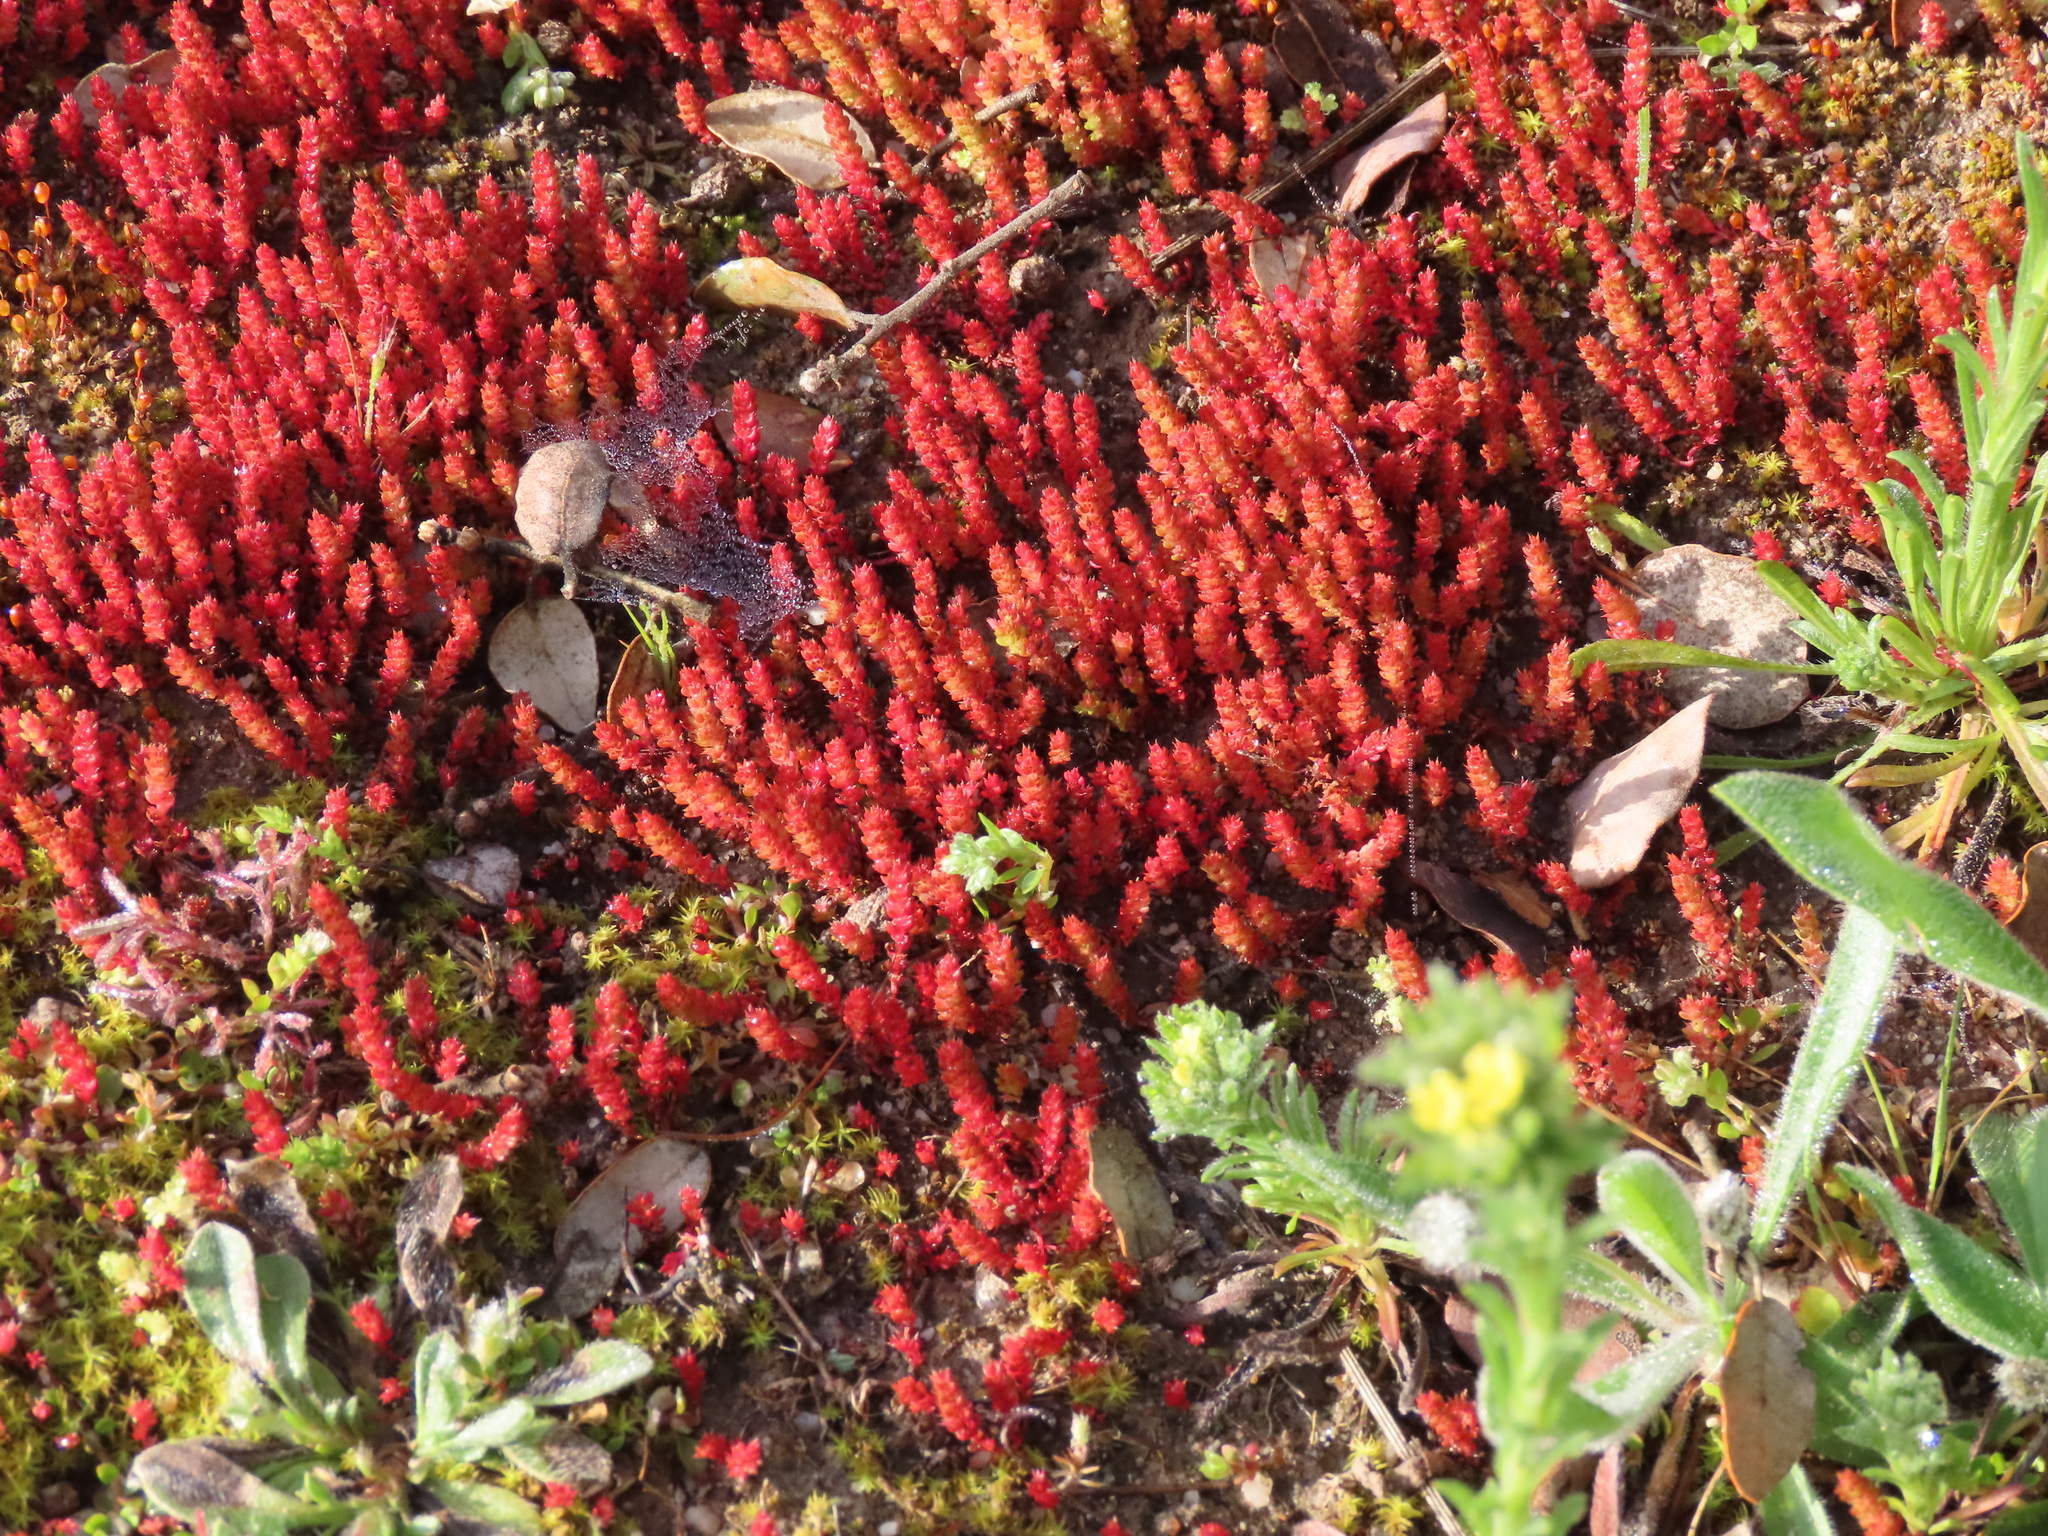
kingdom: Plantae
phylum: Tracheophyta
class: Magnoliopsida
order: Saxifragales
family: Crassulaceae
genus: Crassula
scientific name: Crassula tillaea
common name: Mossy stonecrop
